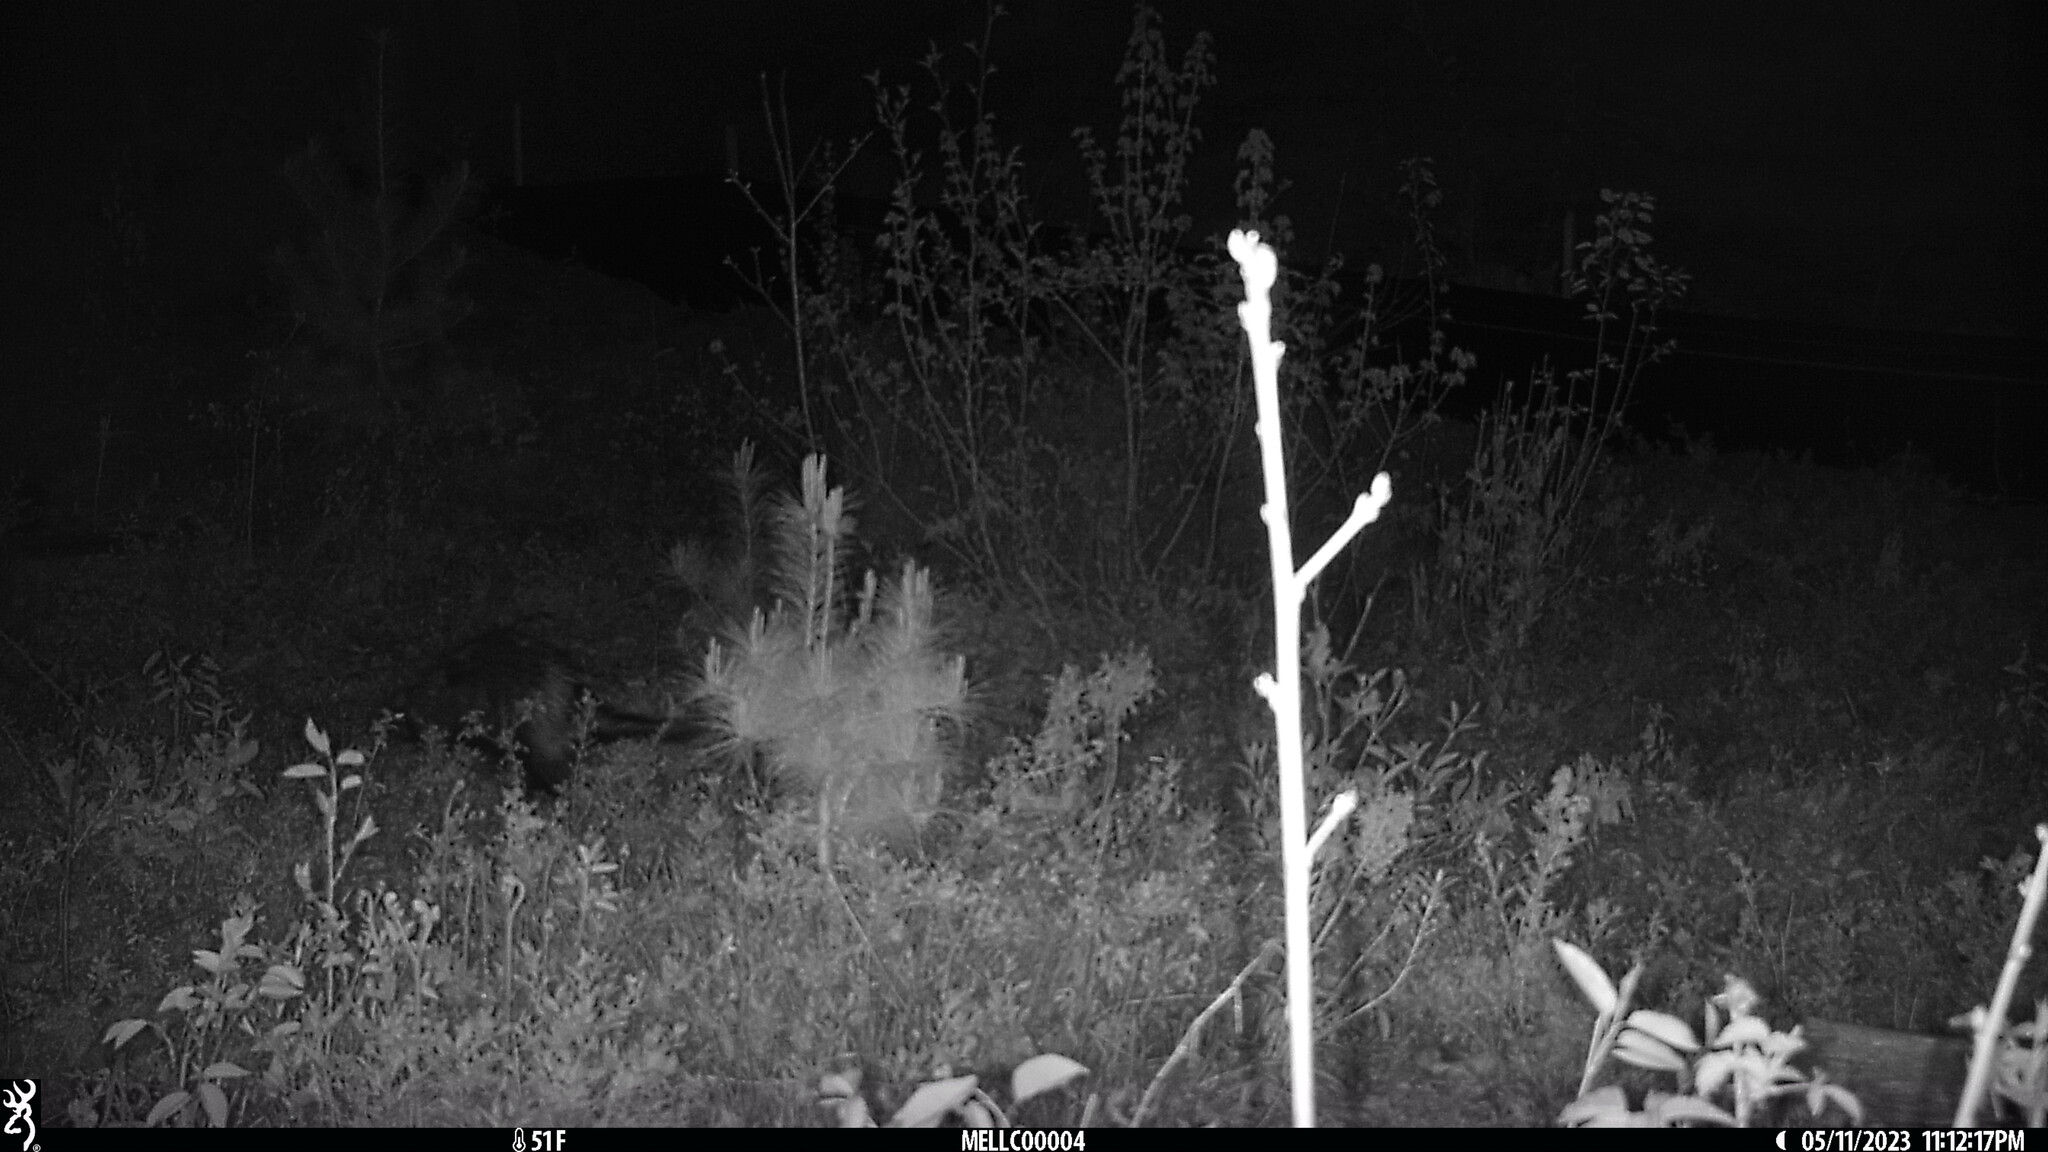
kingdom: Animalia
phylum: Chordata
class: Mammalia
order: Rodentia
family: Erethizontidae
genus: Erethizon
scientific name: Erethizon dorsatus
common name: North american porcupine
